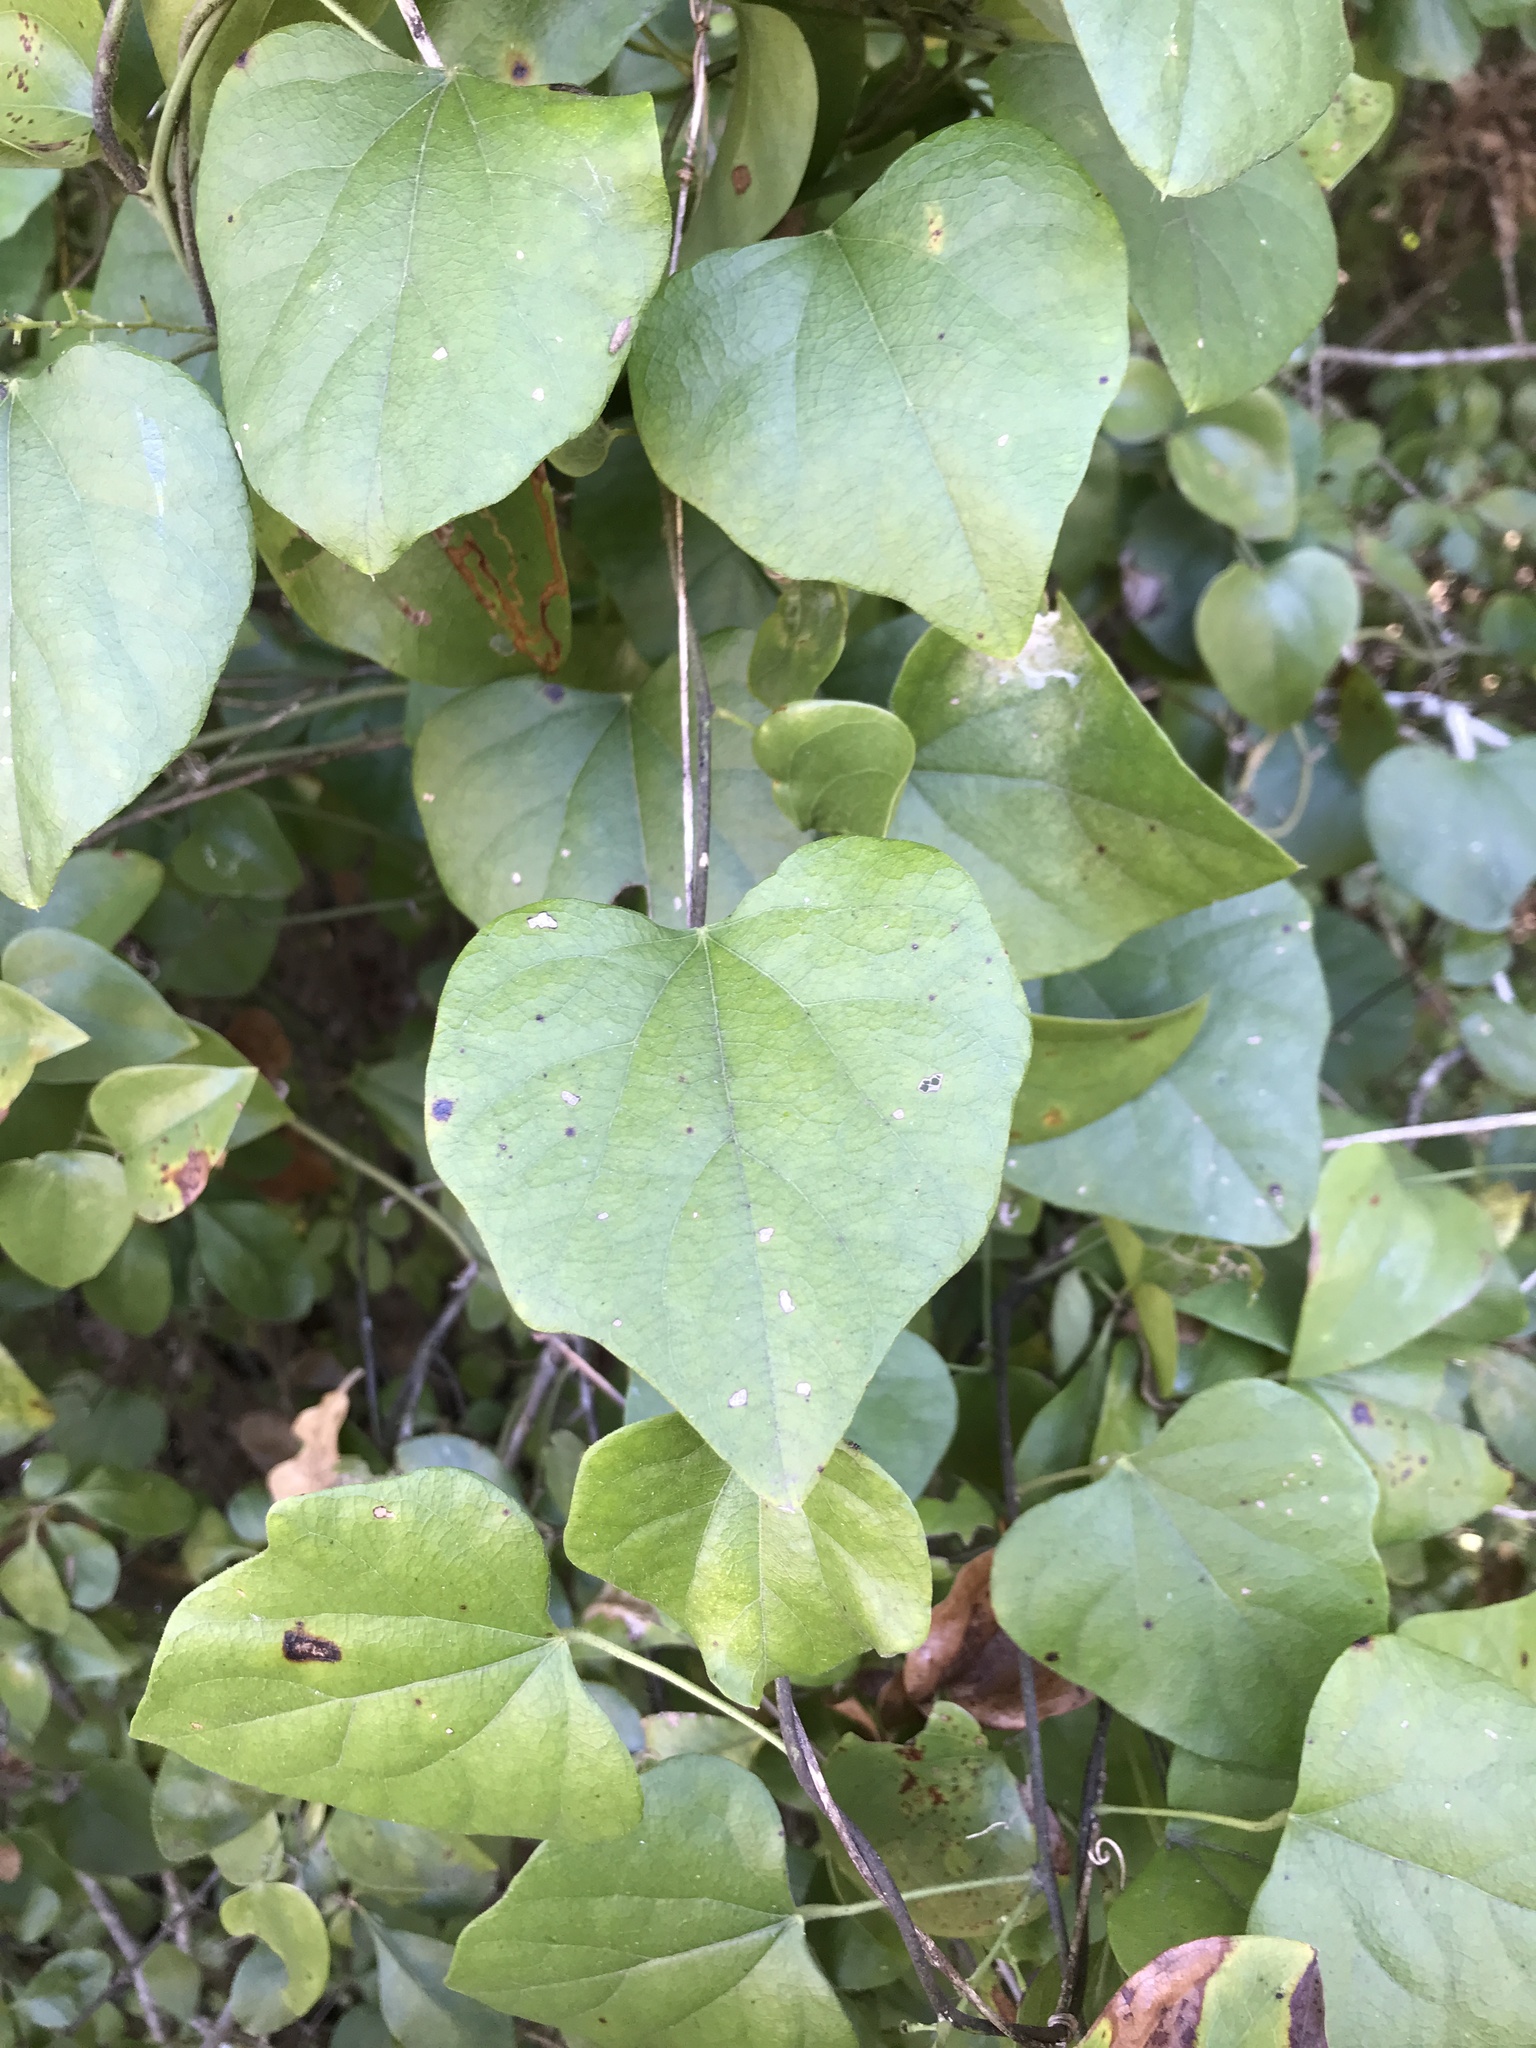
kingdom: Plantae
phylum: Tracheophyta
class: Magnoliopsida
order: Ranunculales
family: Menispermaceae
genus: Cocculus
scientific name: Cocculus carolinus
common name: Carolina moonseed
